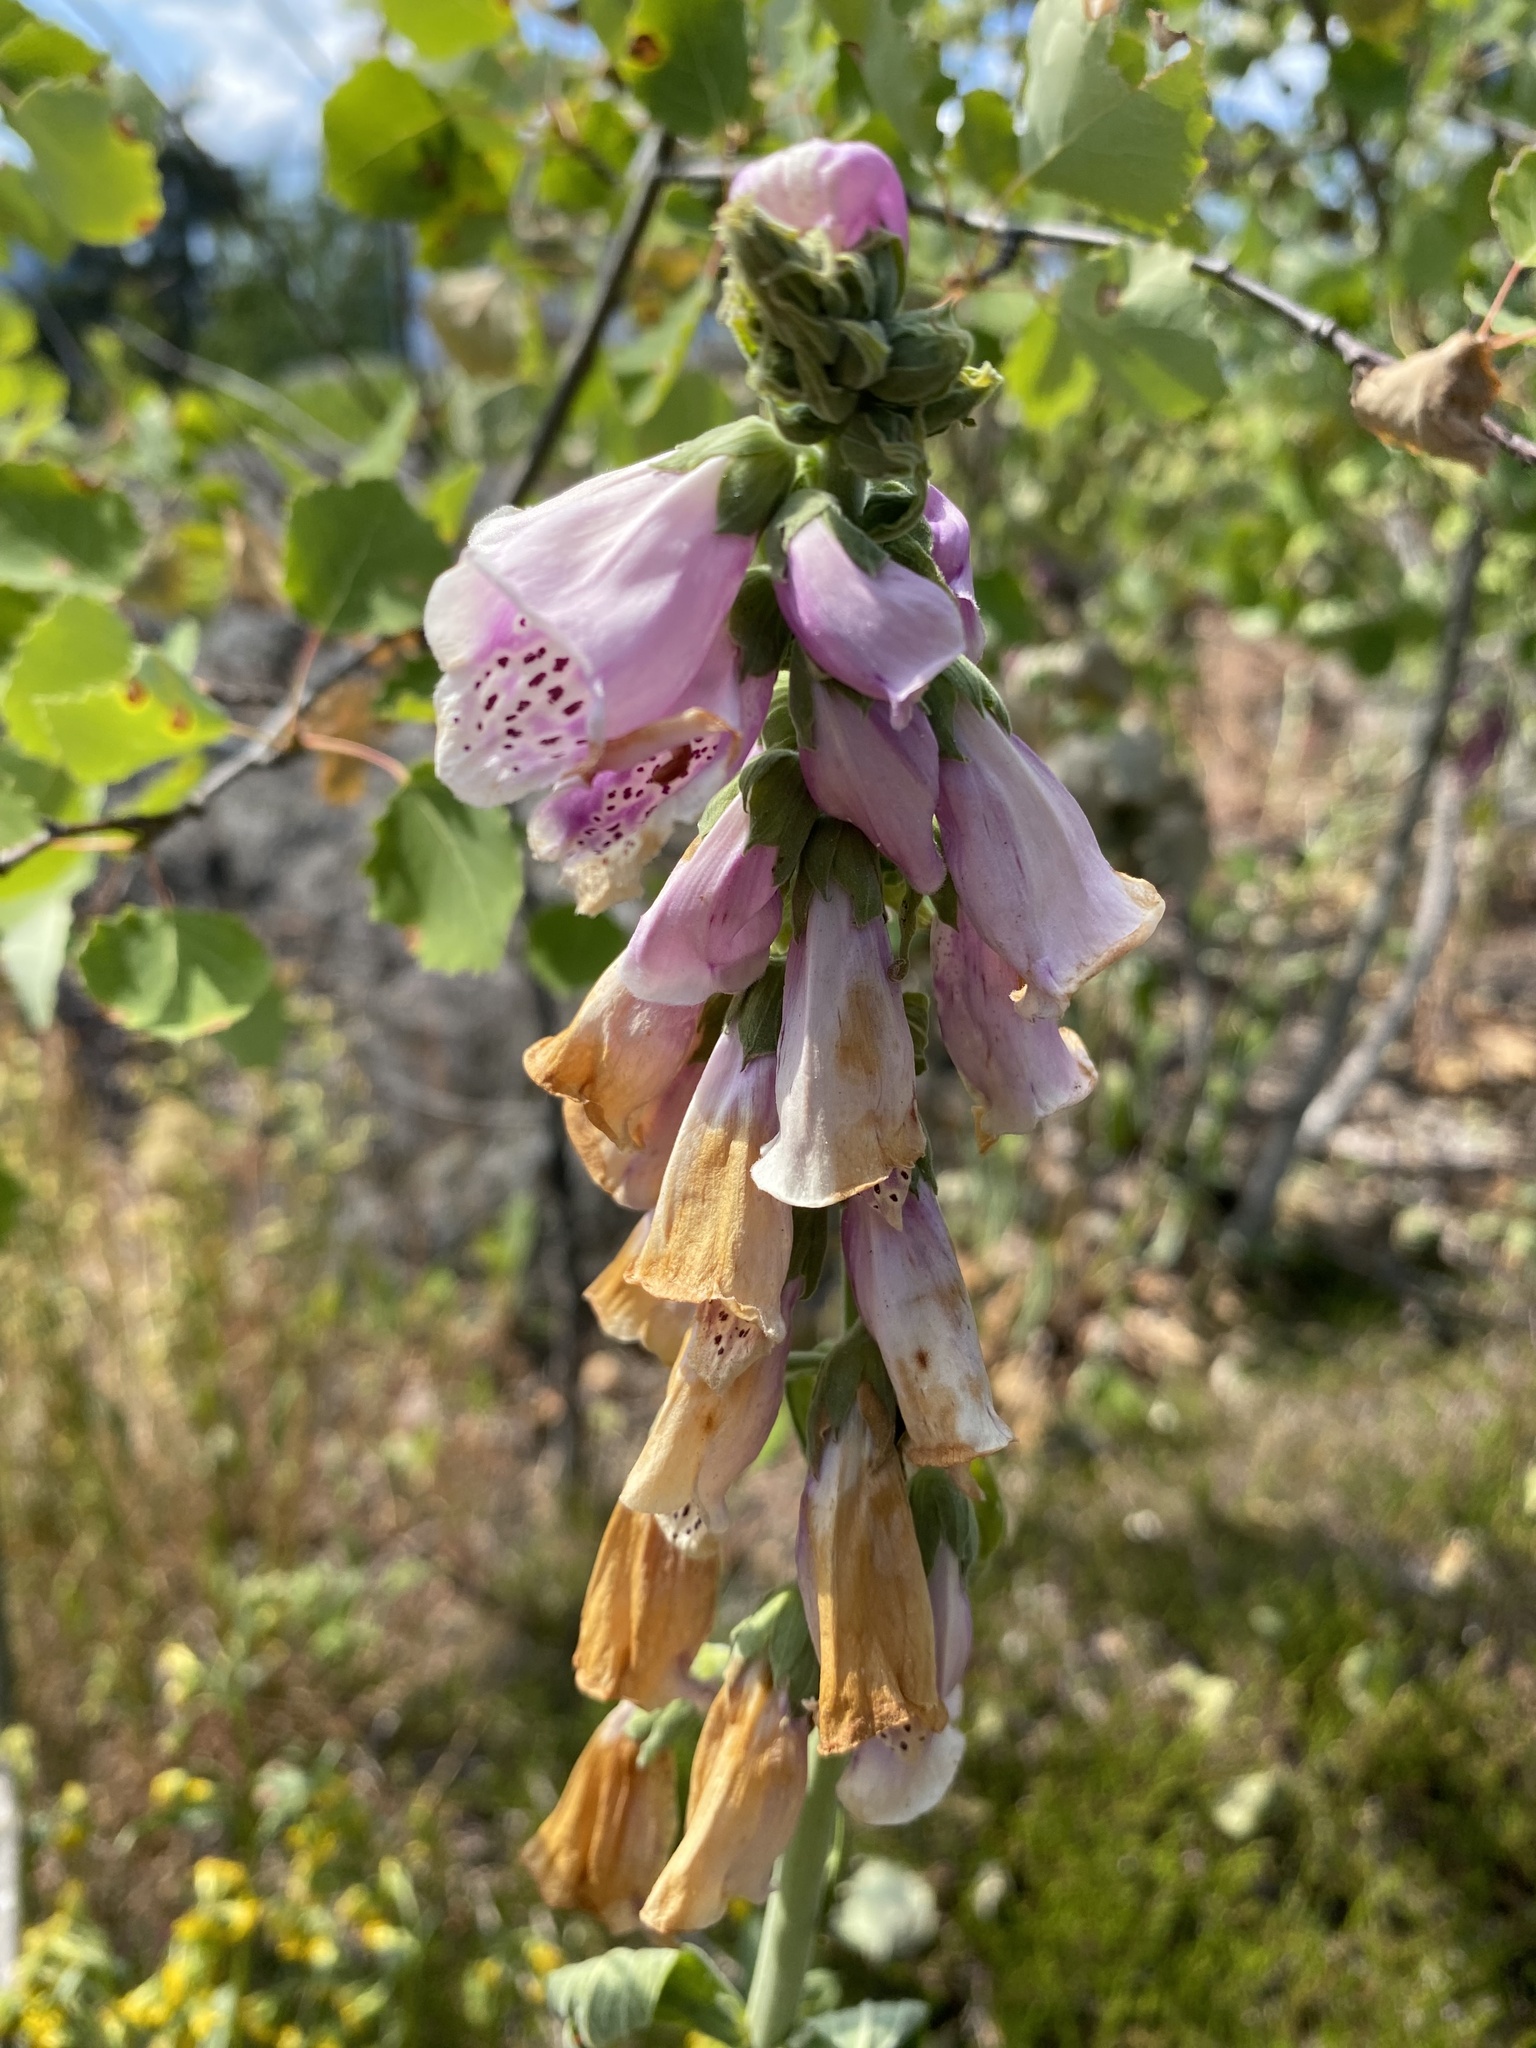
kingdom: Plantae
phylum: Tracheophyta
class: Magnoliopsida
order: Lamiales
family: Plantaginaceae
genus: Digitalis
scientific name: Digitalis purpurea
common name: Foxglove
